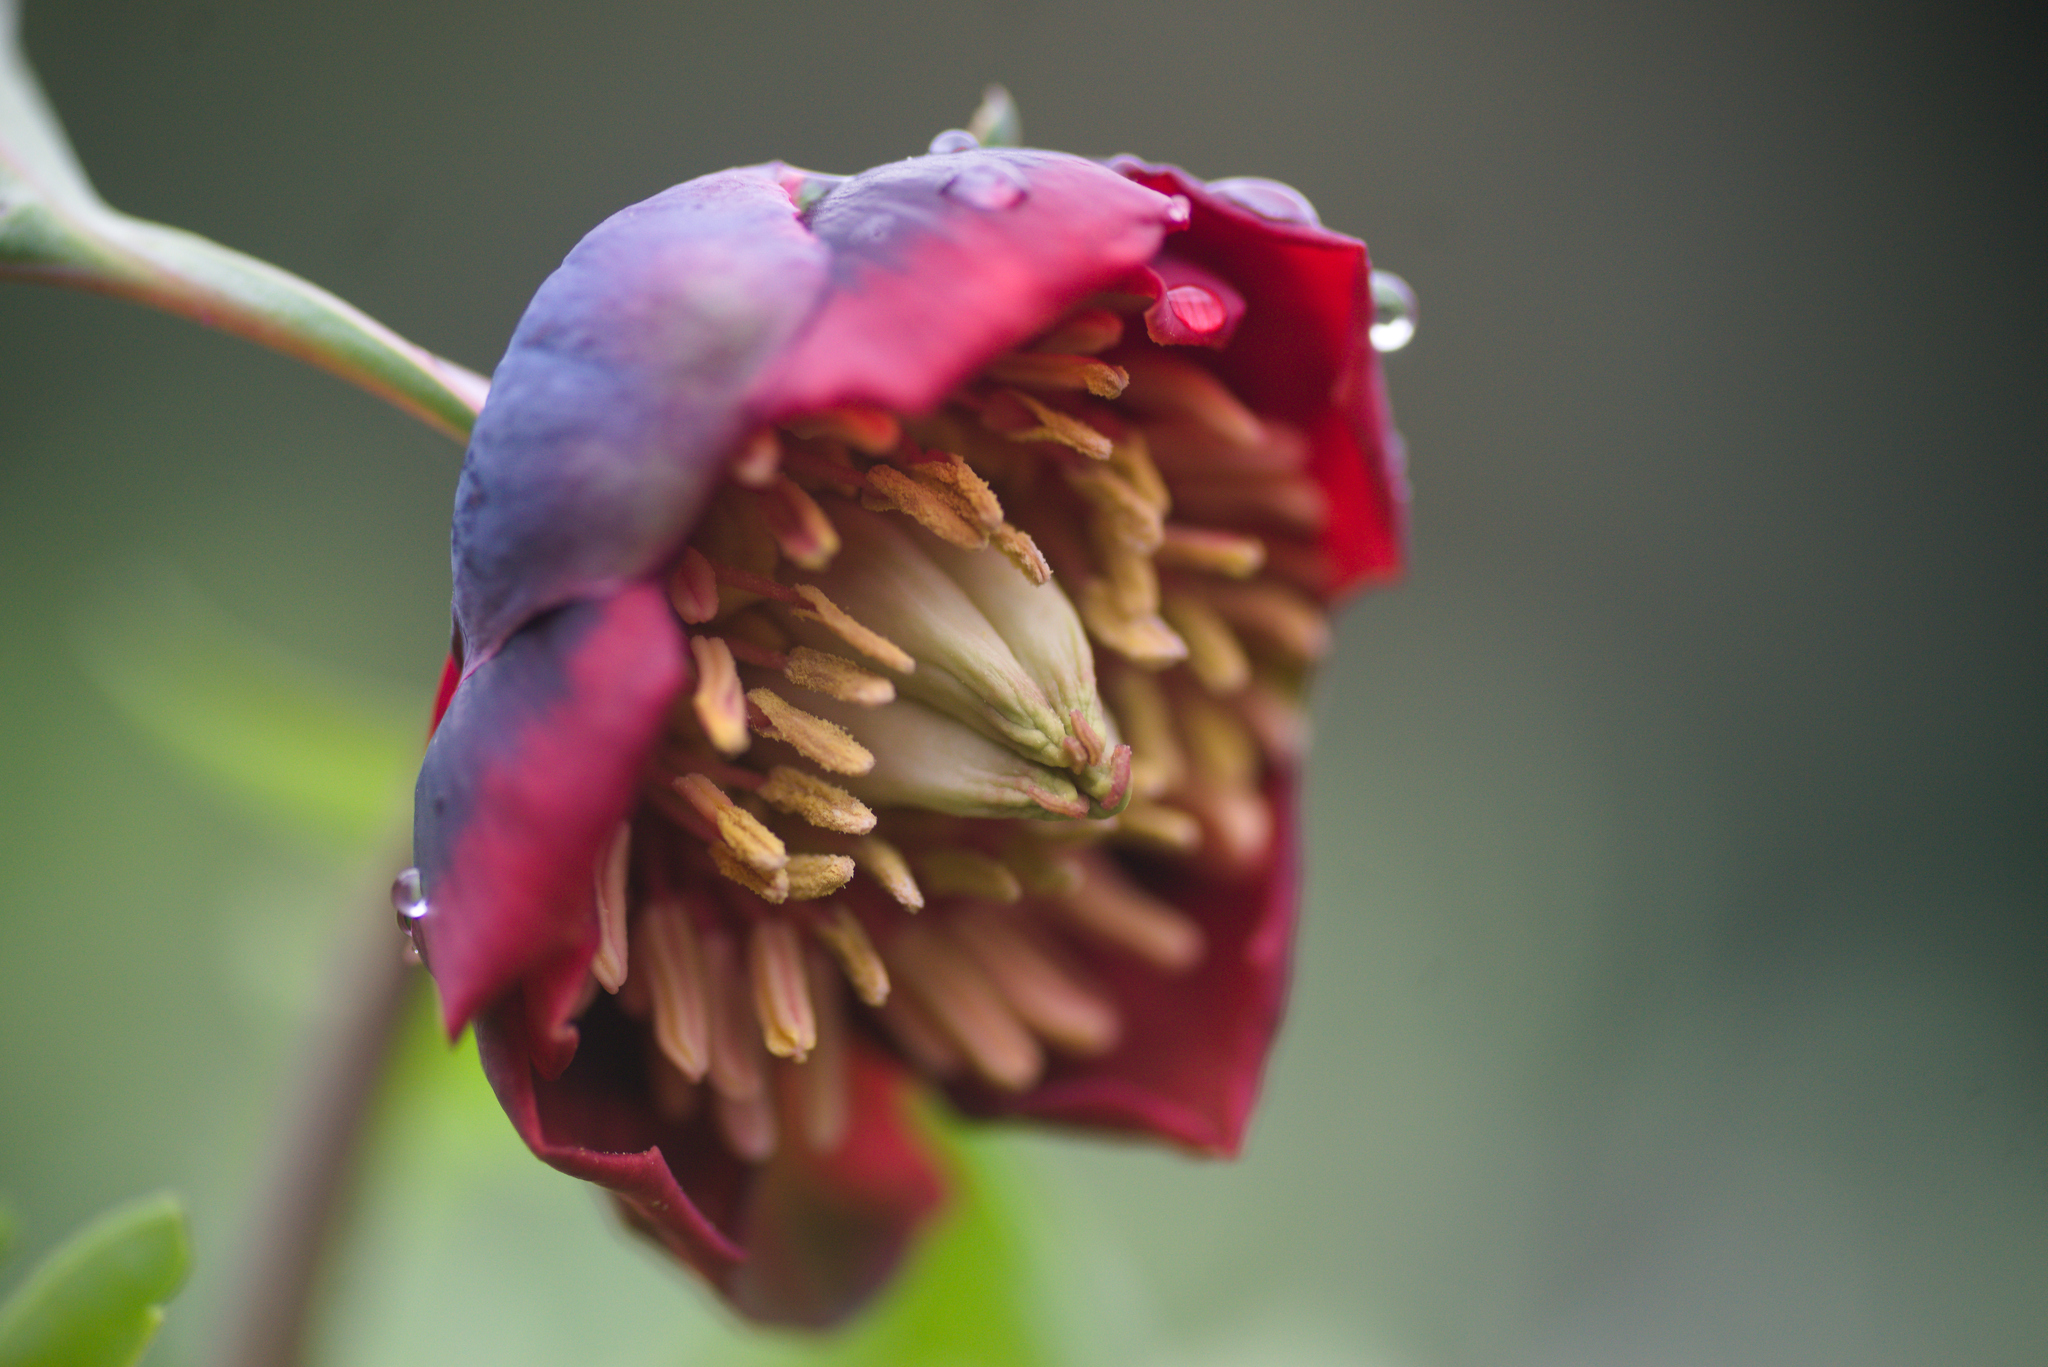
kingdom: Plantae
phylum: Tracheophyta
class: Magnoliopsida
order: Saxifragales
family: Paeoniaceae
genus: Paeonia
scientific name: Paeonia californica
